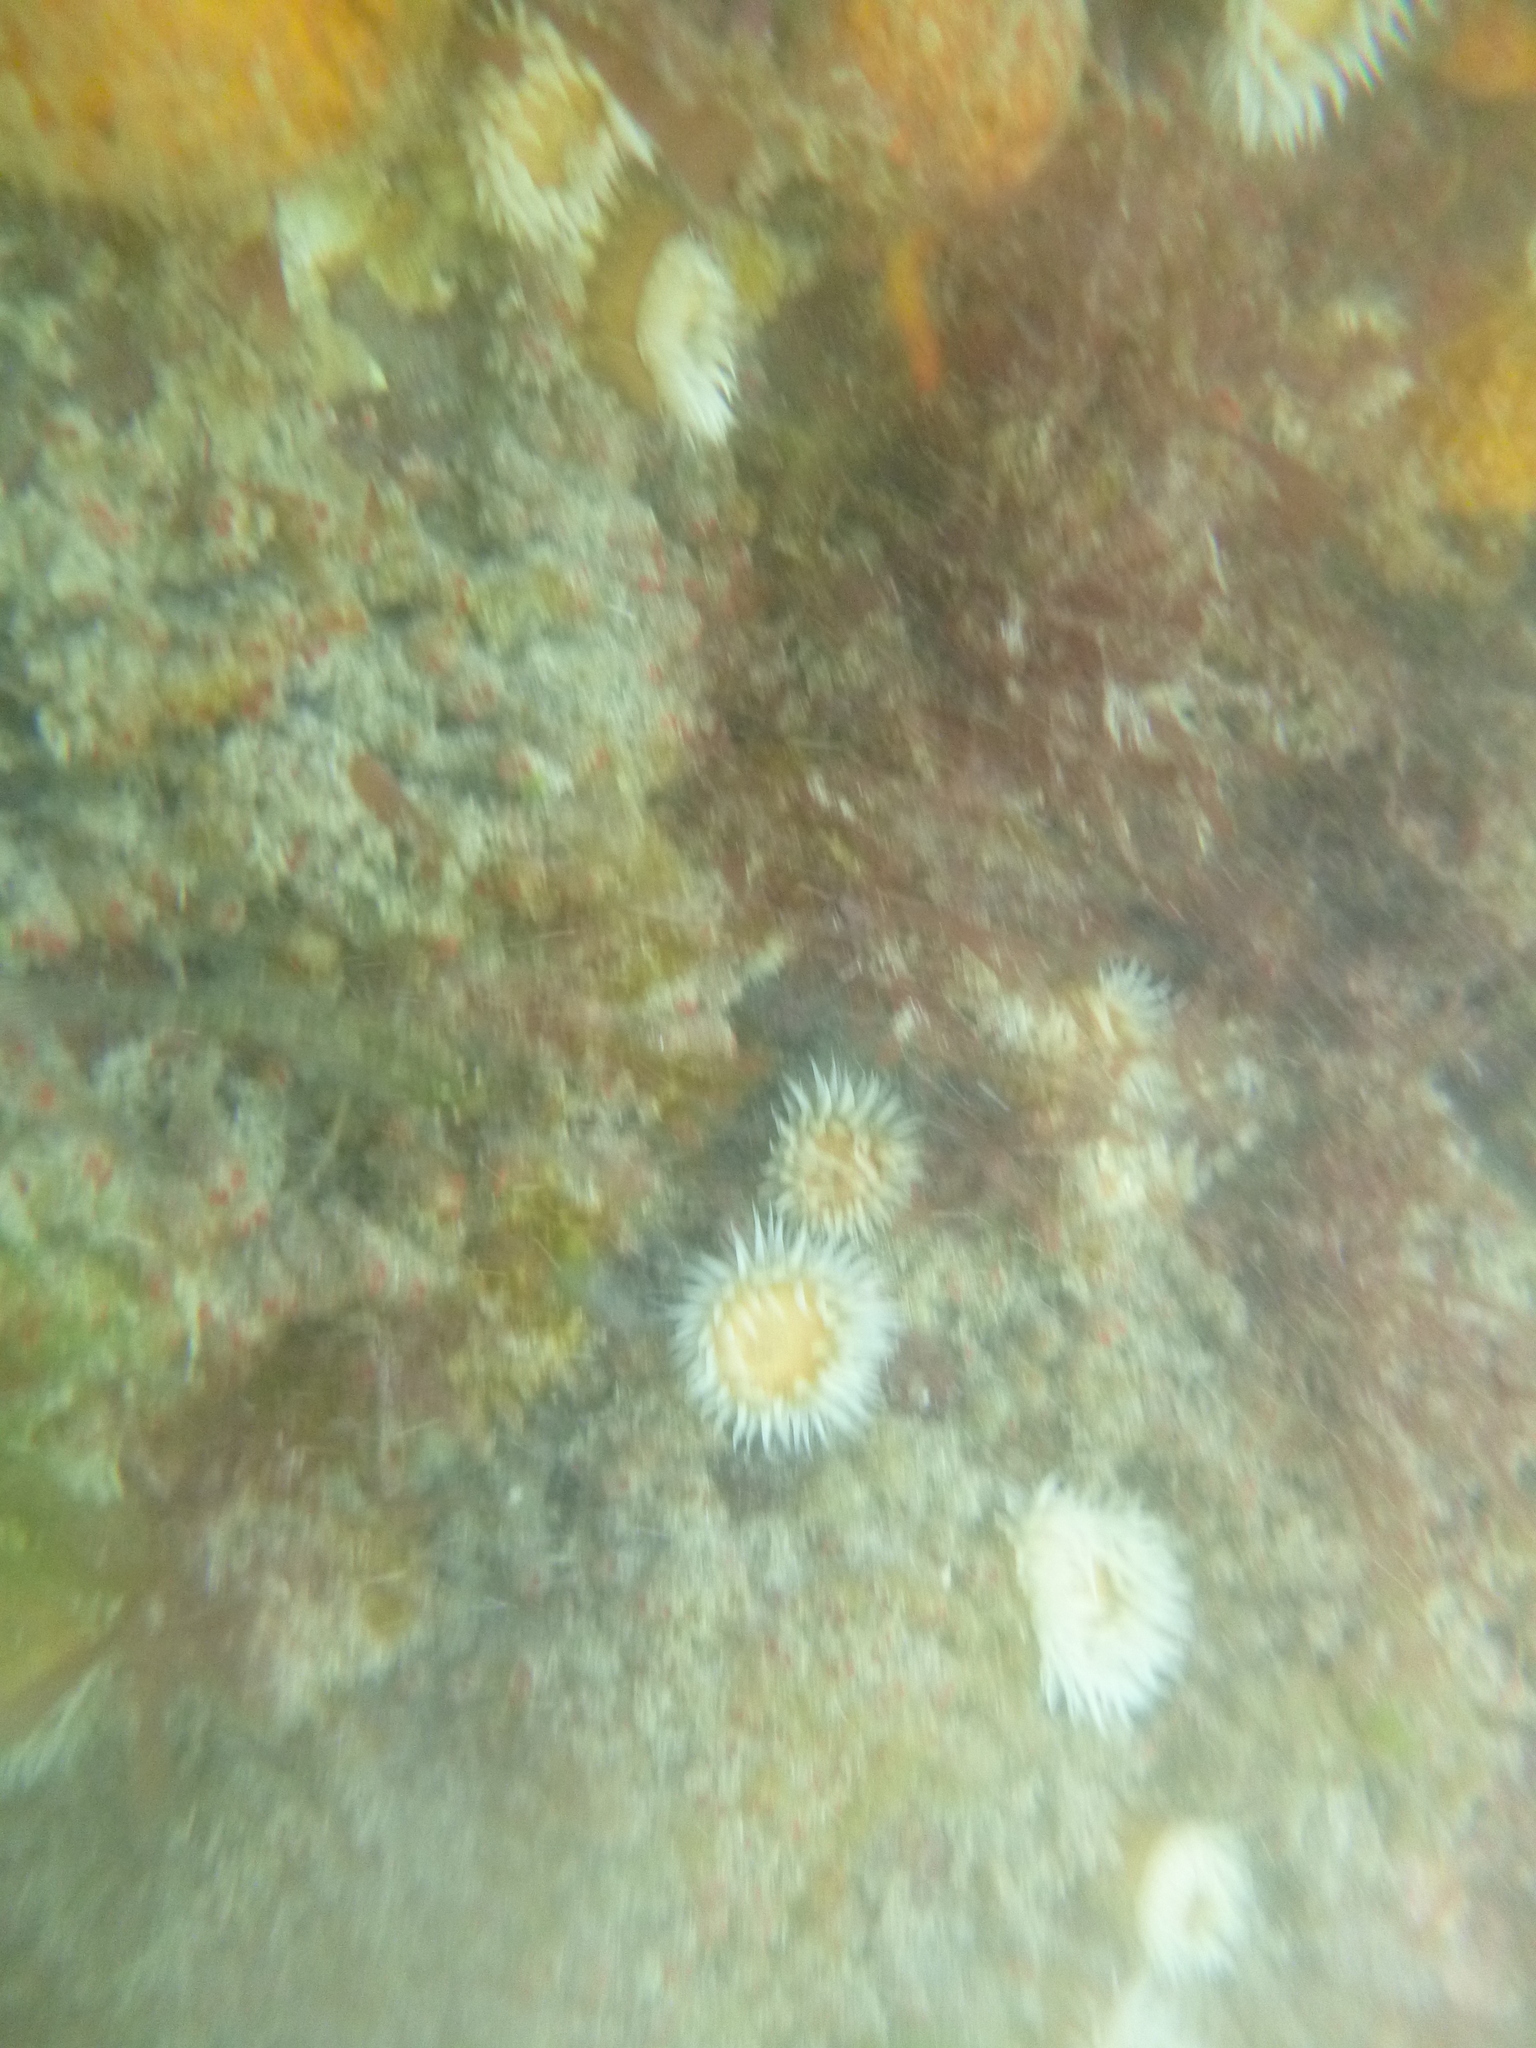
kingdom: Animalia
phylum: Cnidaria
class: Anthozoa
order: Actiniaria
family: Sagartiidae
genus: Anthothoe
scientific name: Anthothoe albocincta
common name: Orange striped anemone
